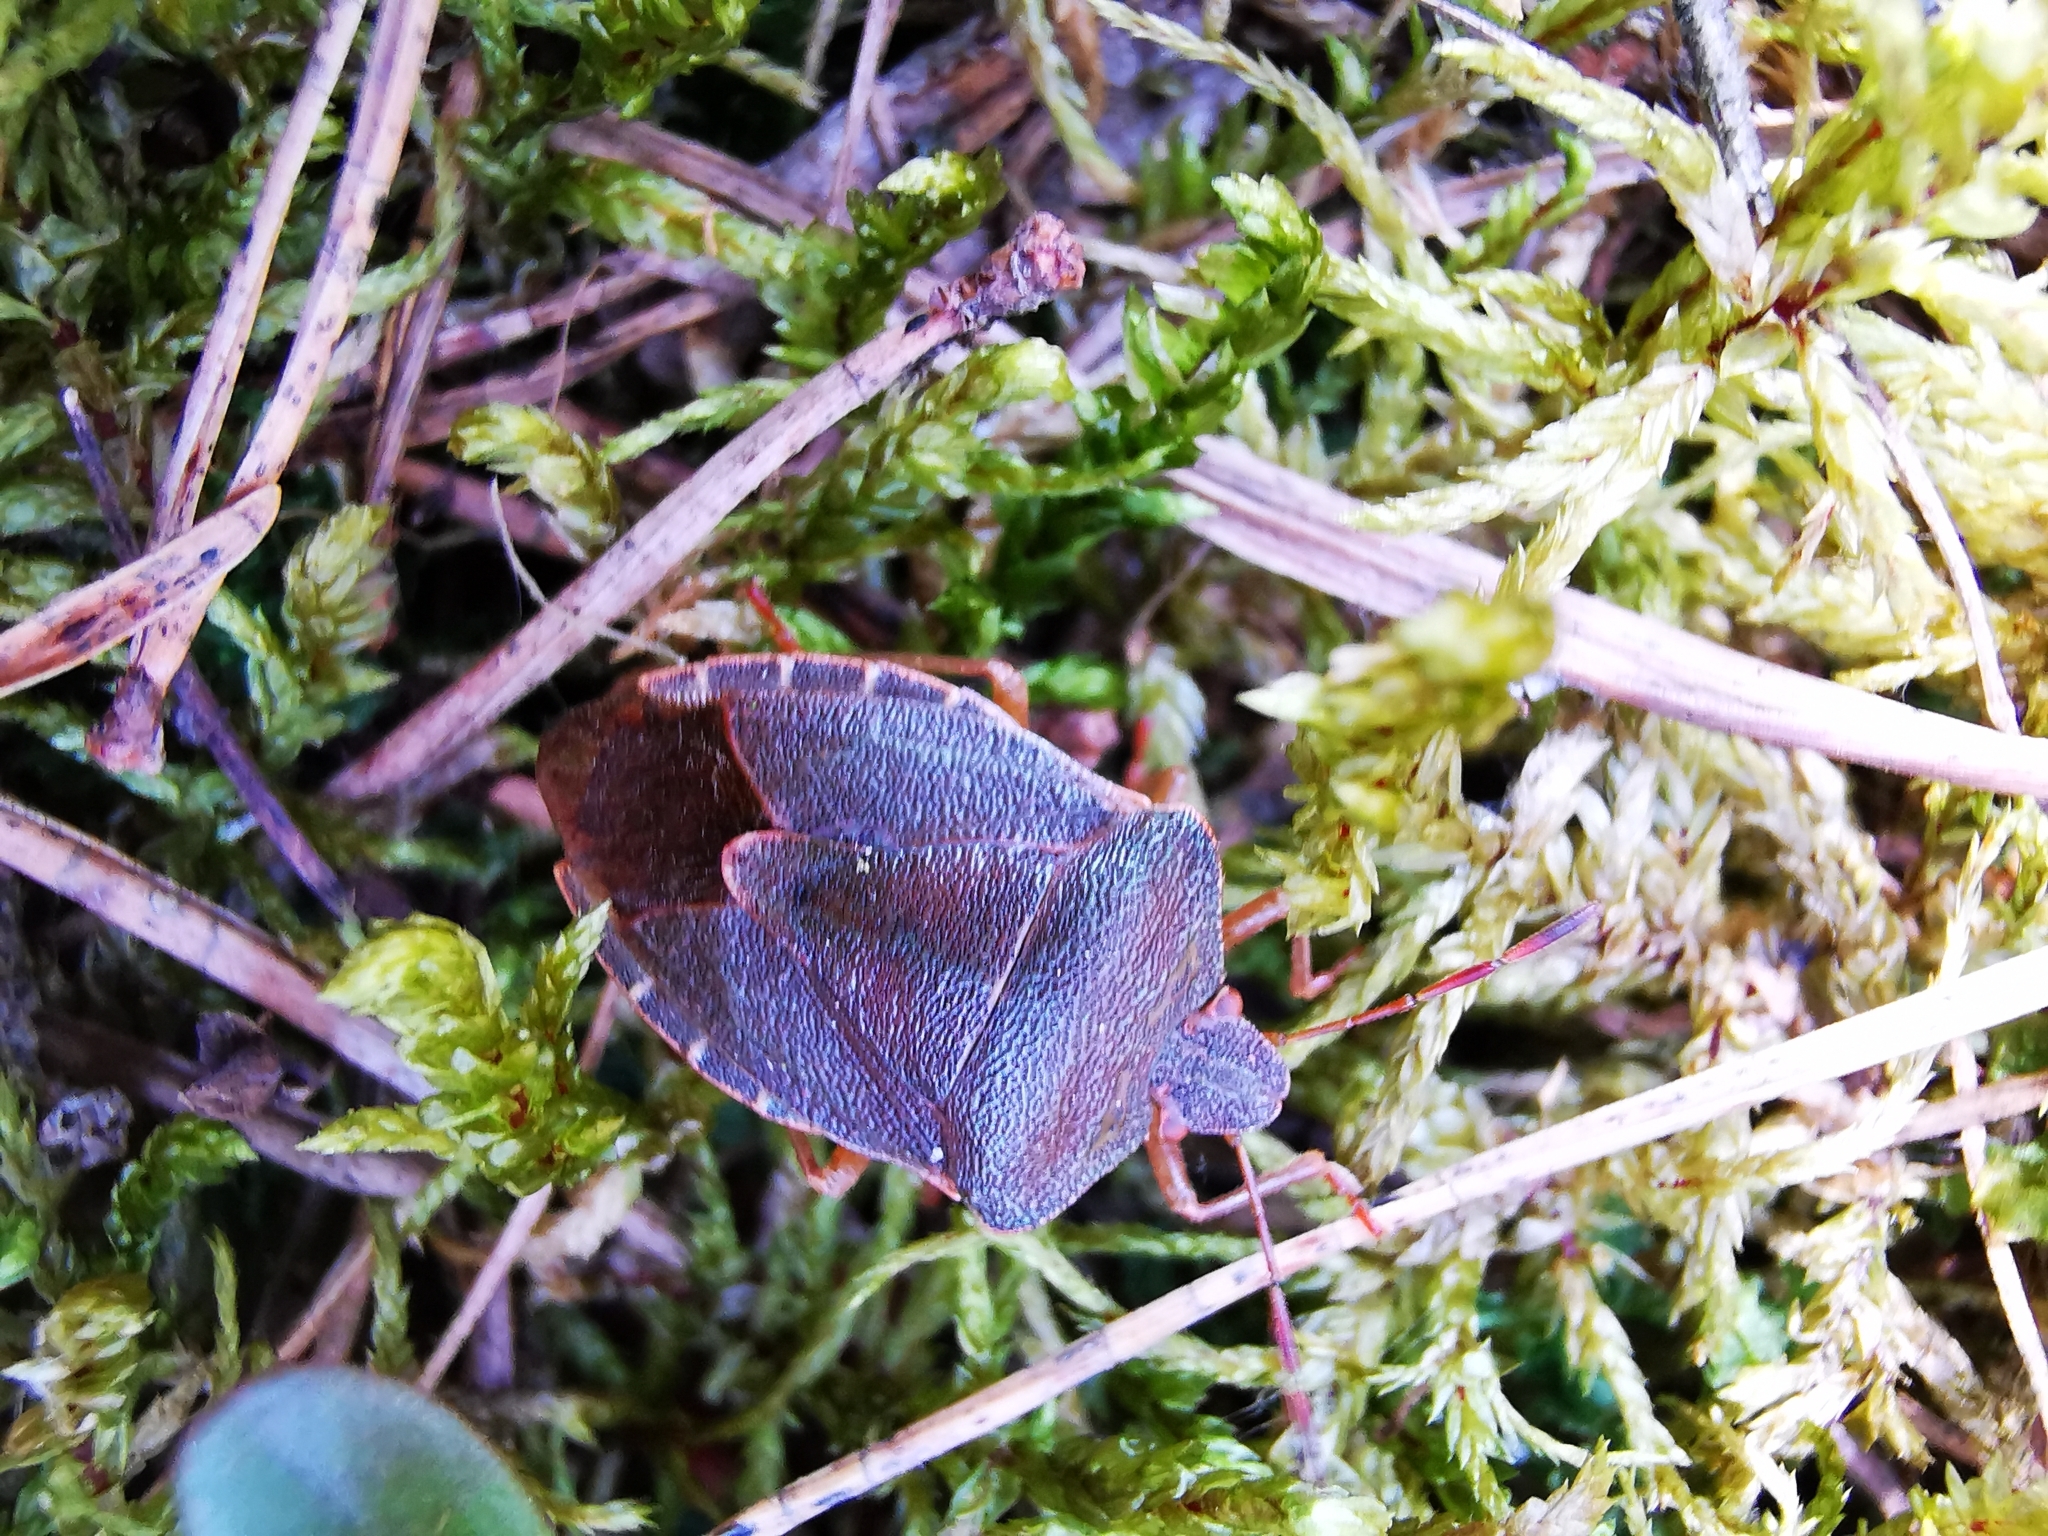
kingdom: Animalia
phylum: Arthropoda
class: Insecta
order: Hemiptera
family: Pentatomidae
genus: Palomena
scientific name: Palomena prasina
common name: Green shieldbug
